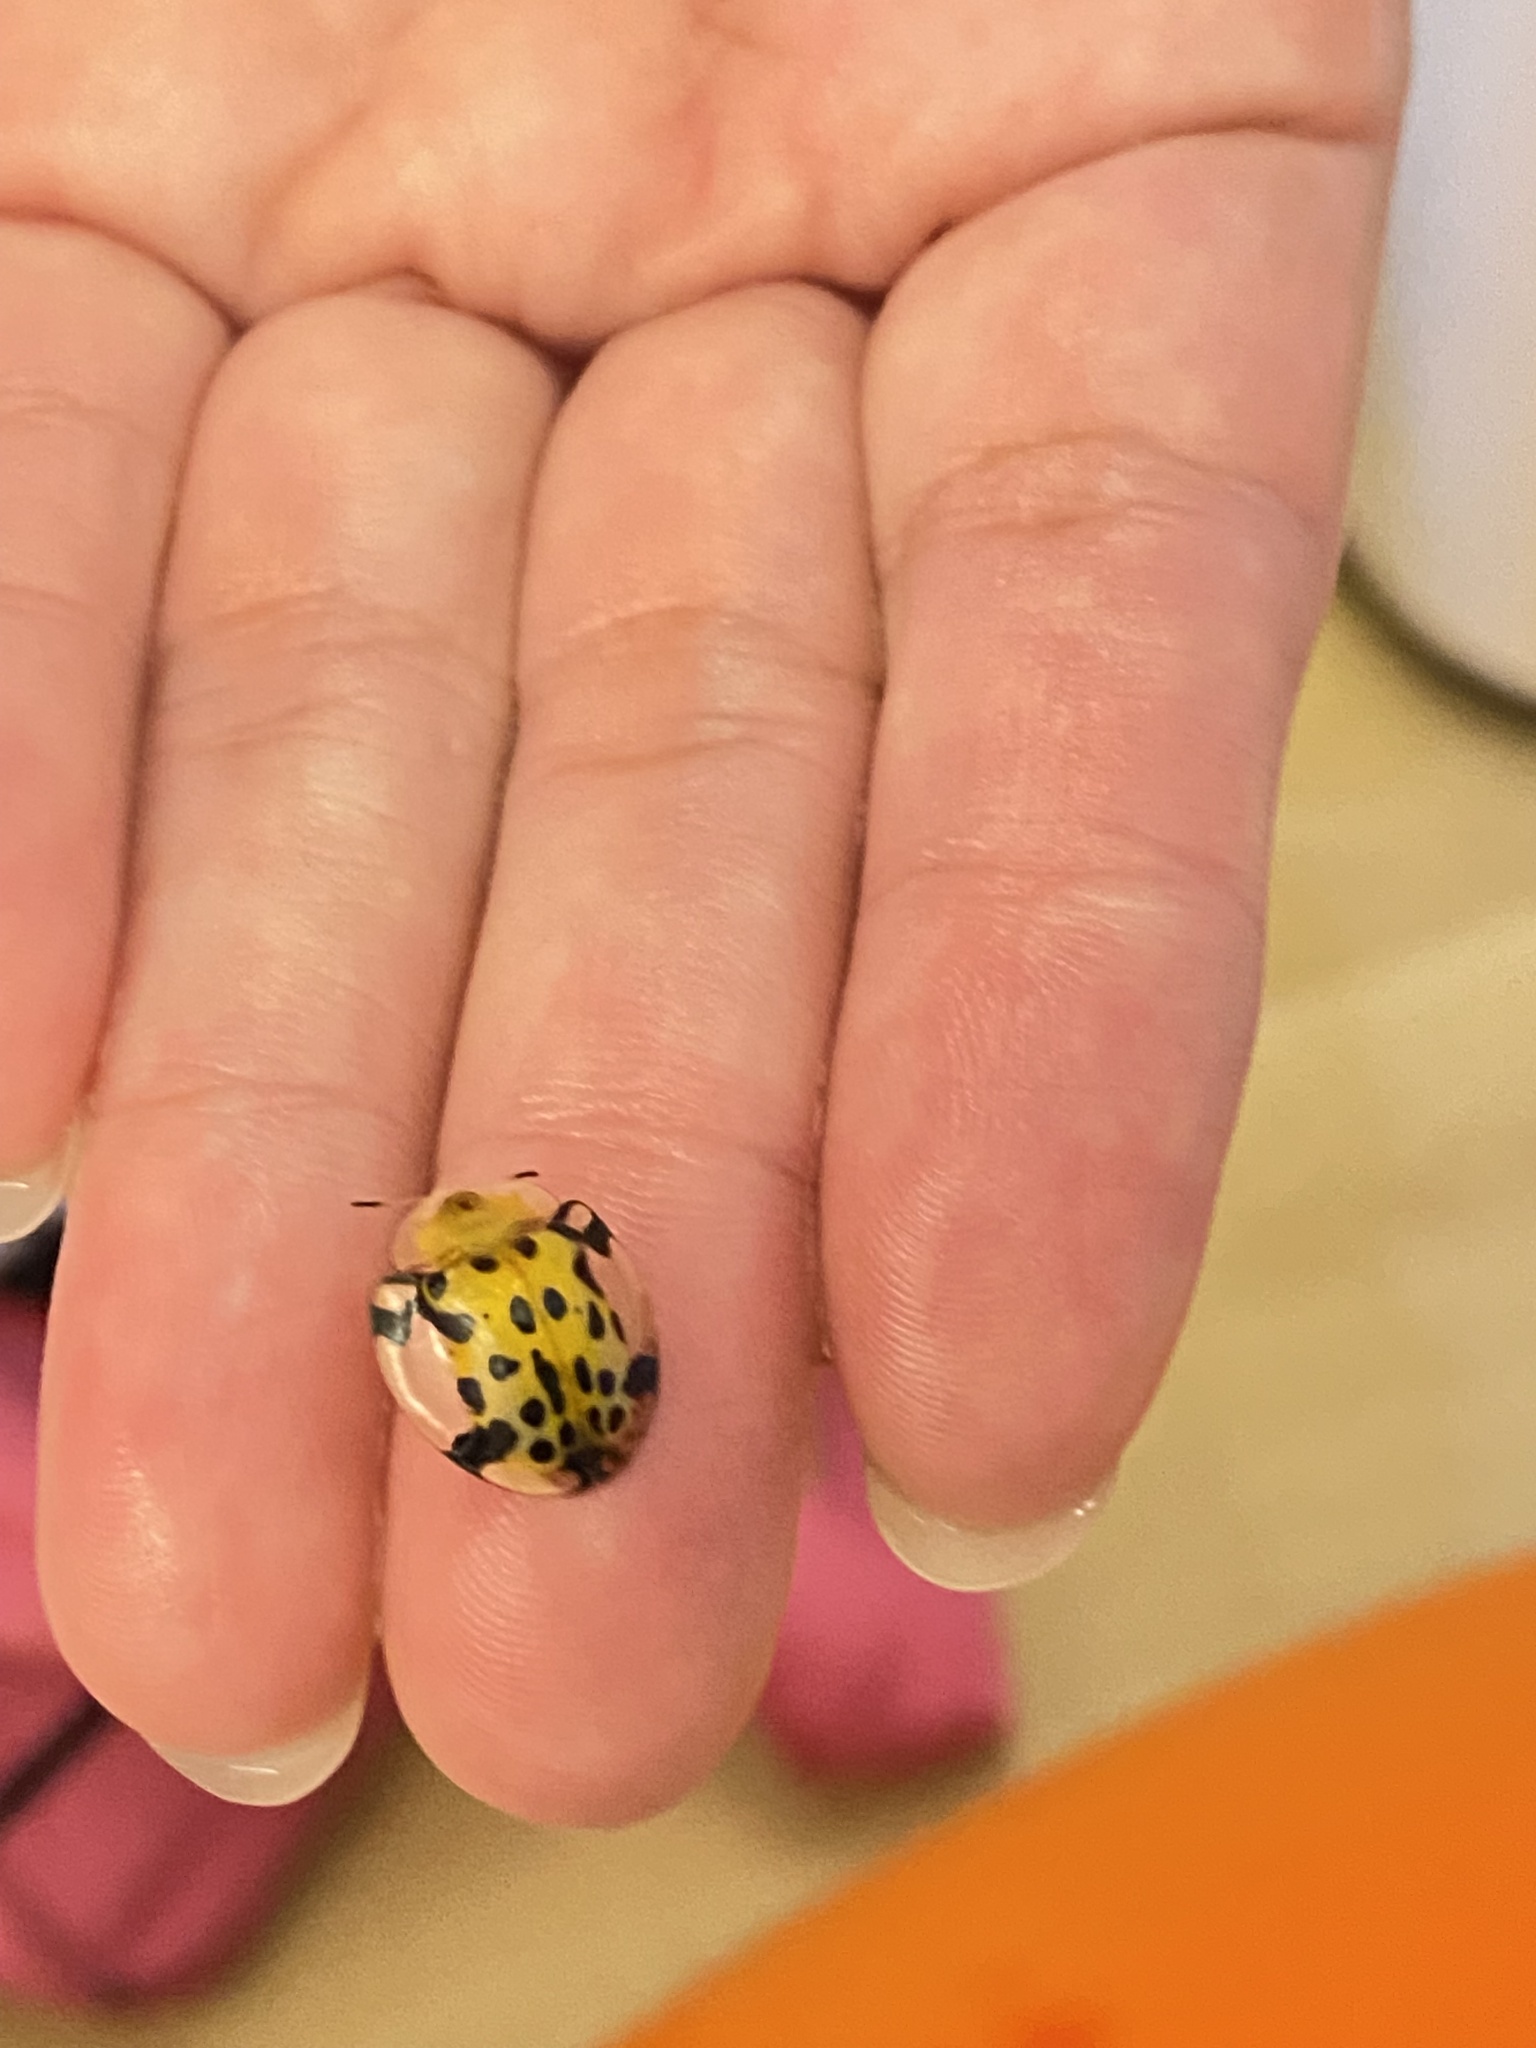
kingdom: Animalia
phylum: Arthropoda
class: Insecta
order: Coleoptera
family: Chrysomelidae
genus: Aspidimorpha
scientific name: Aspidimorpha miliaris
